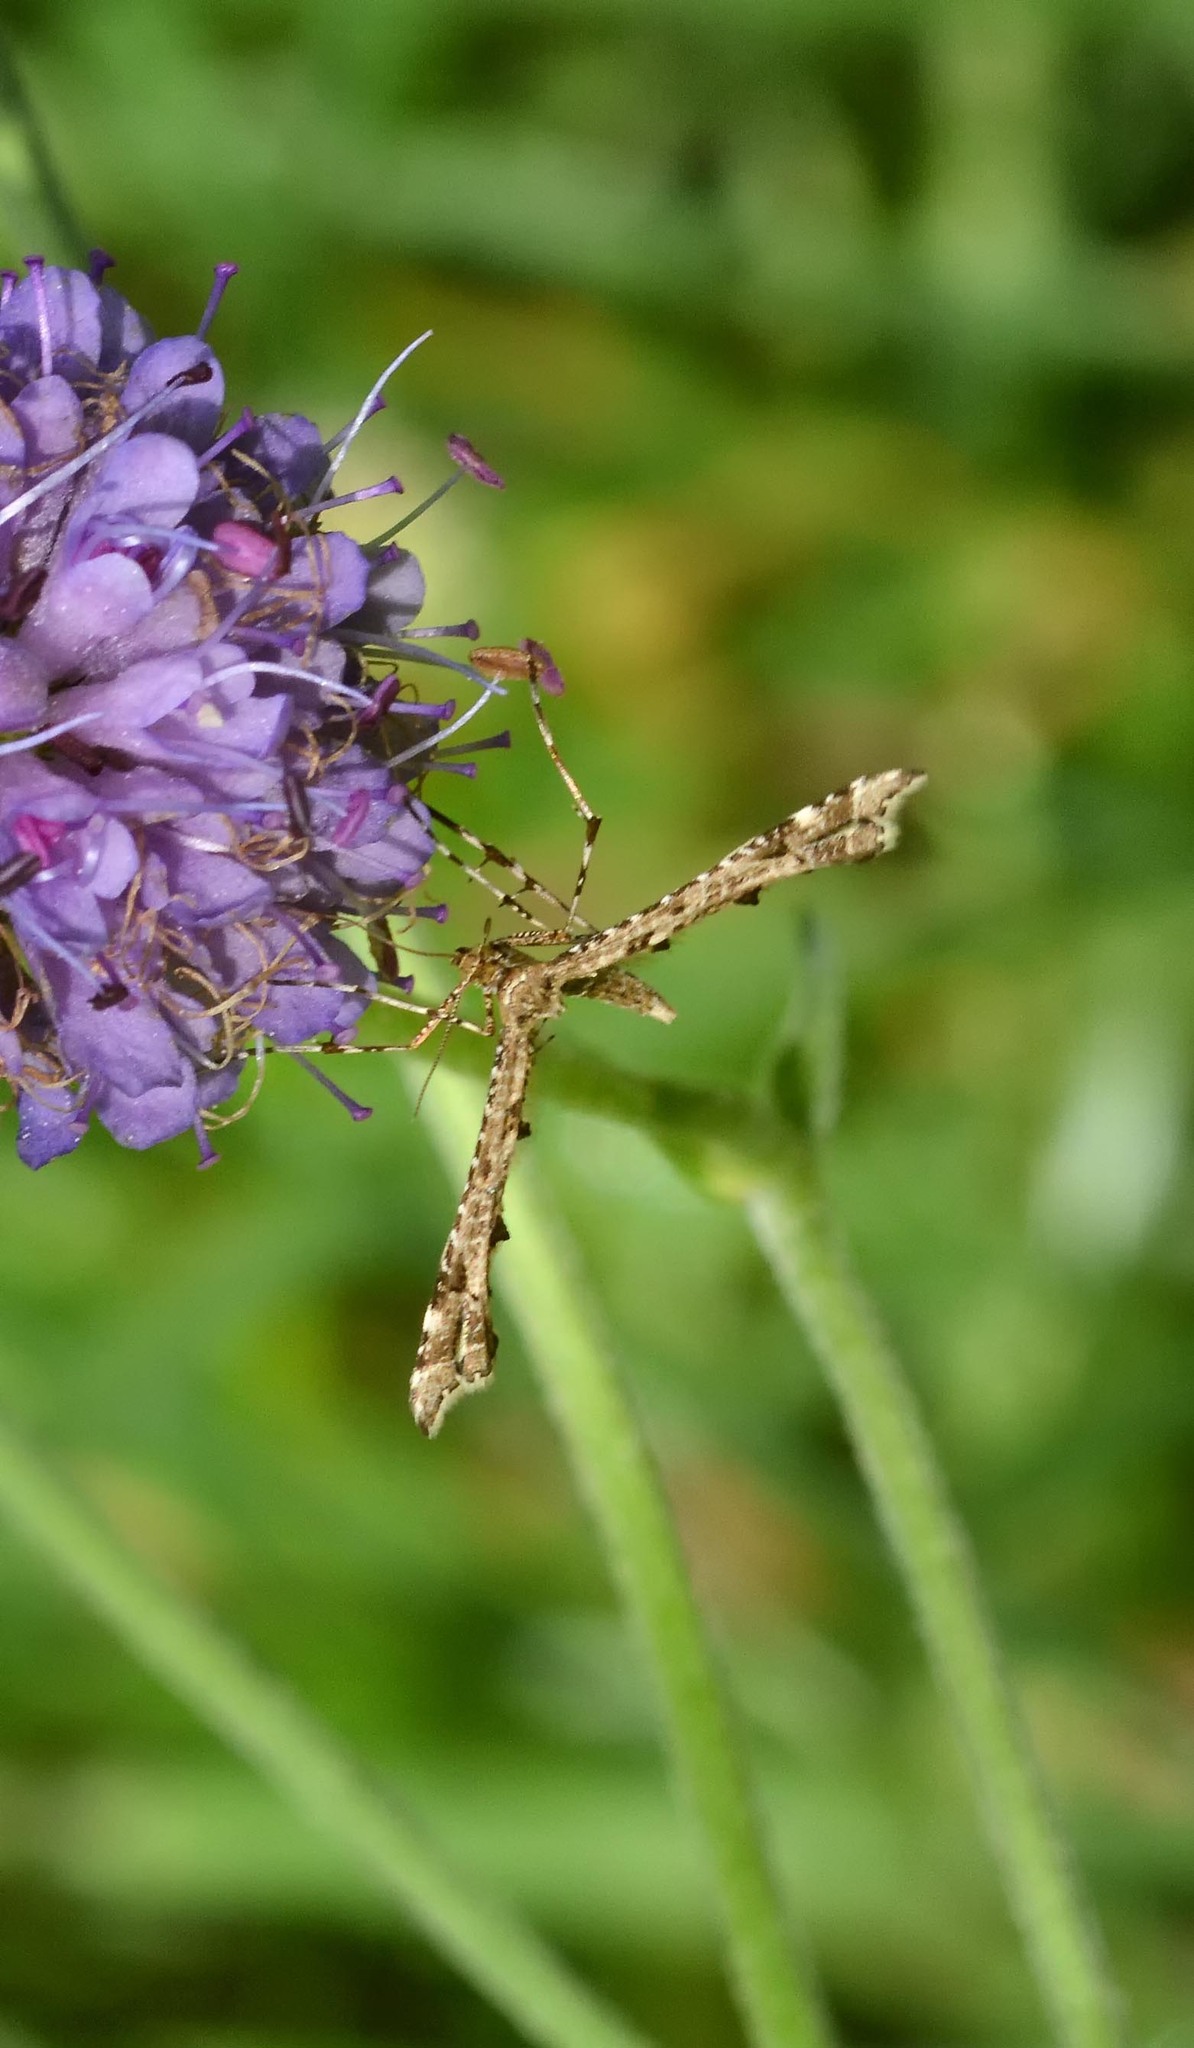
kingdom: Animalia
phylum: Arthropoda
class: Insecta
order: Lepidoptera
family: Pterophoridae
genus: Amblyptilia
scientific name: Amblyptilia acanthadactyla
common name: Beautiful plume
